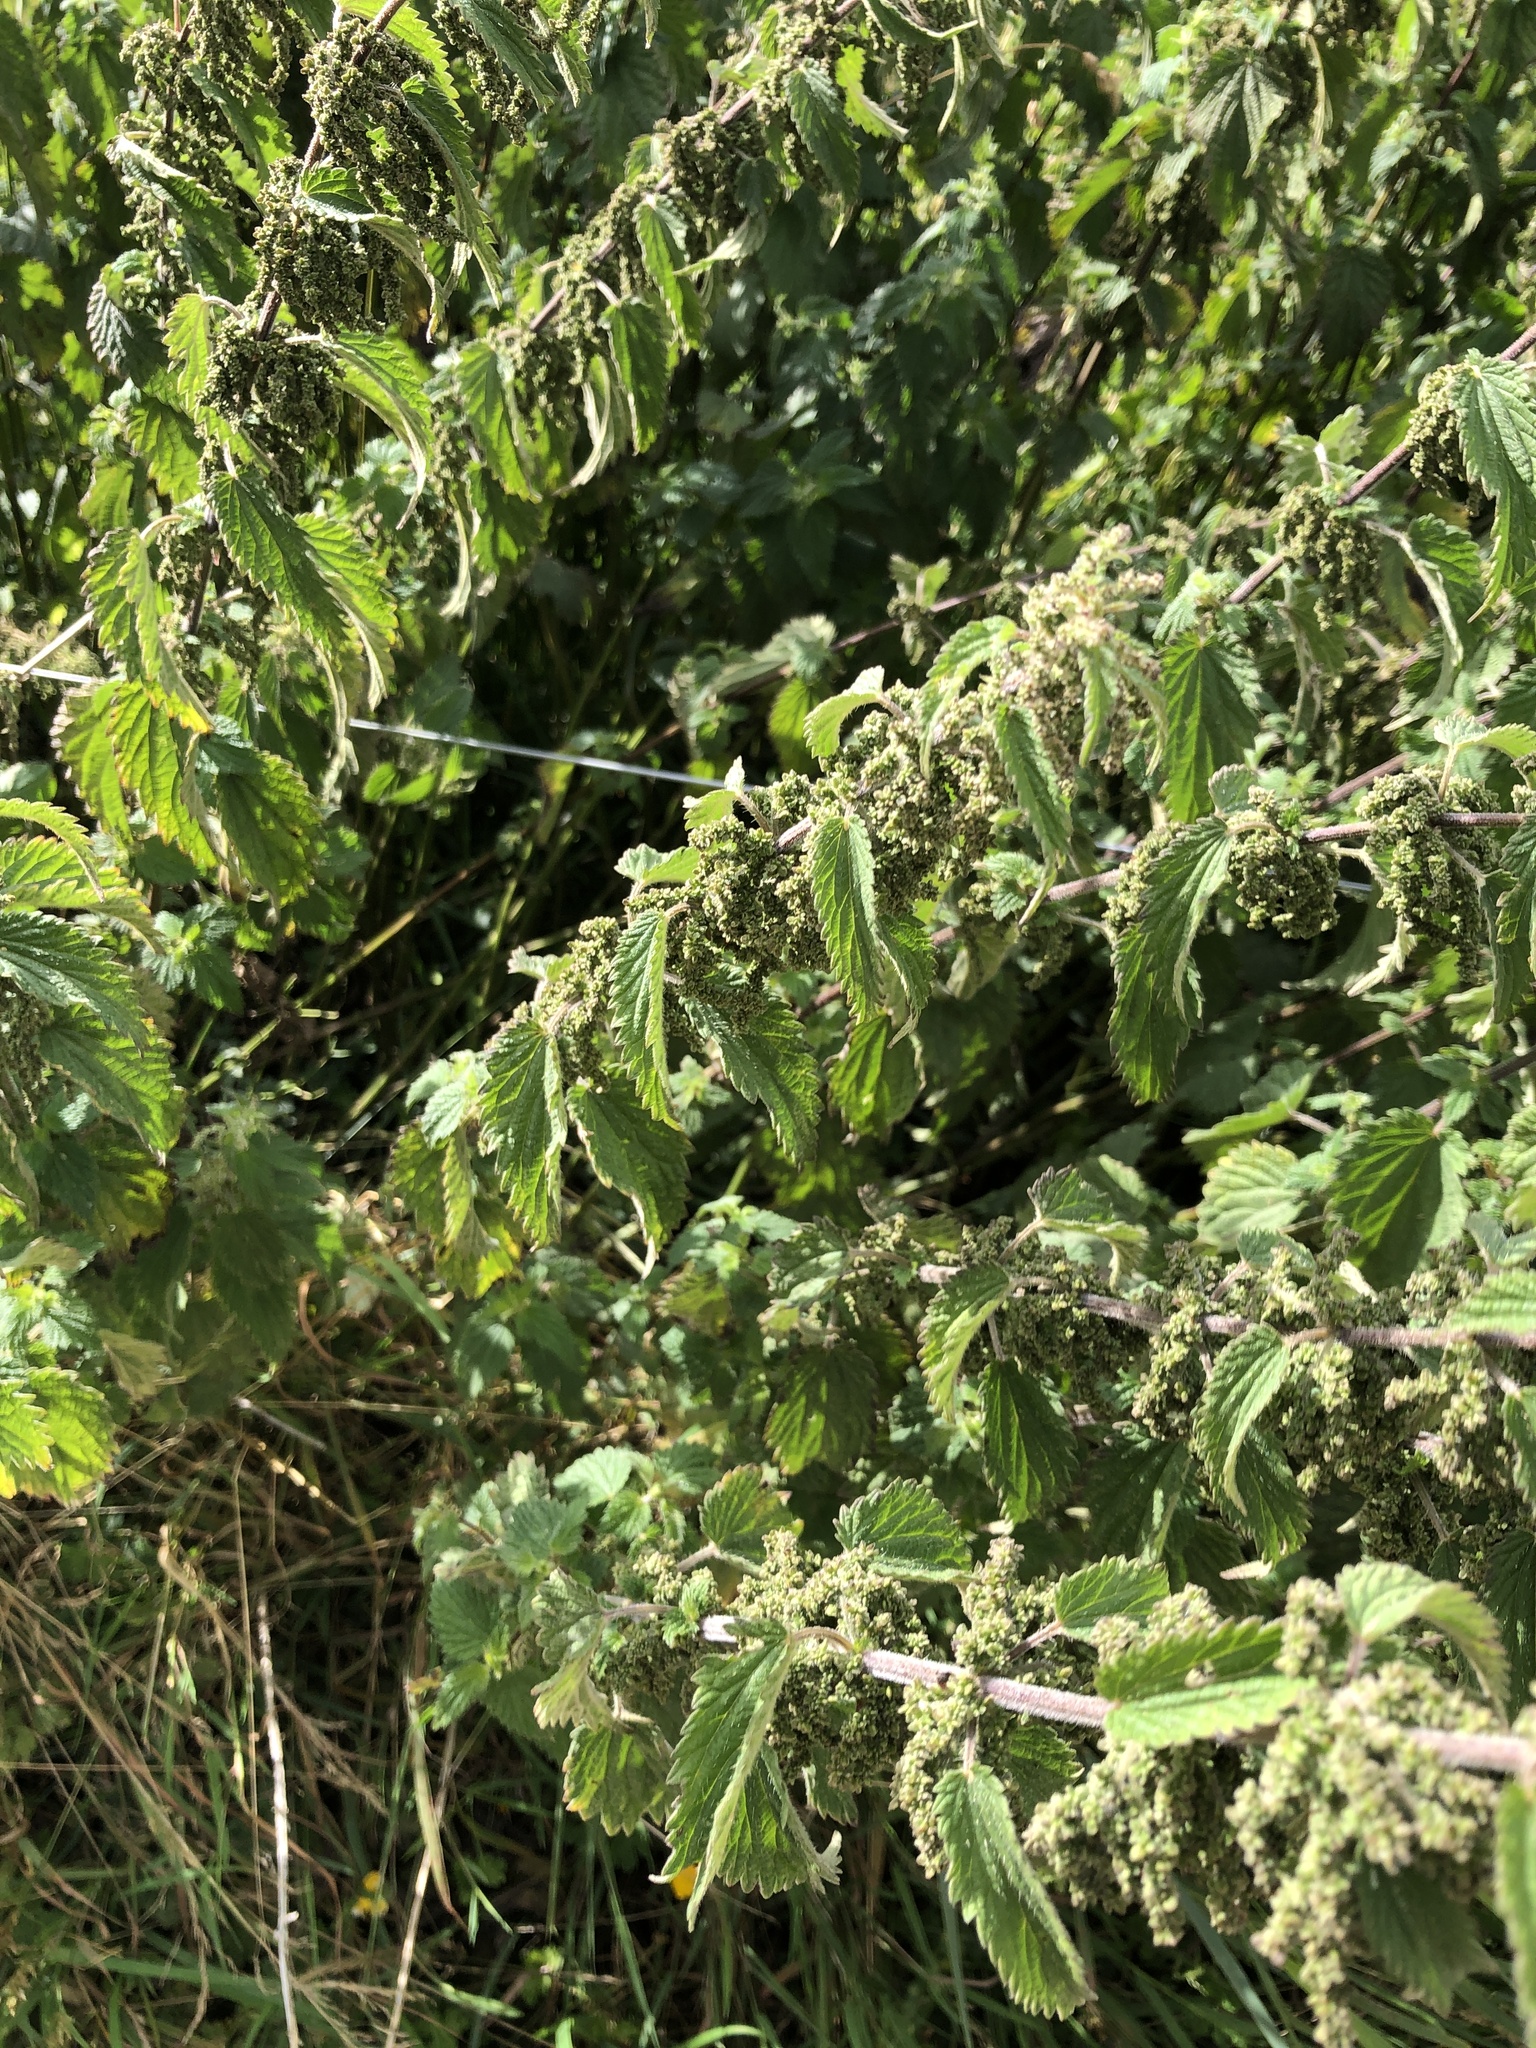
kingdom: Plantae
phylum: Tracheophyta
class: Magnoliopsida
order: Rosales
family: Urticaceae
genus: Urtica
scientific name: Urtica dioica
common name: Common nettle
